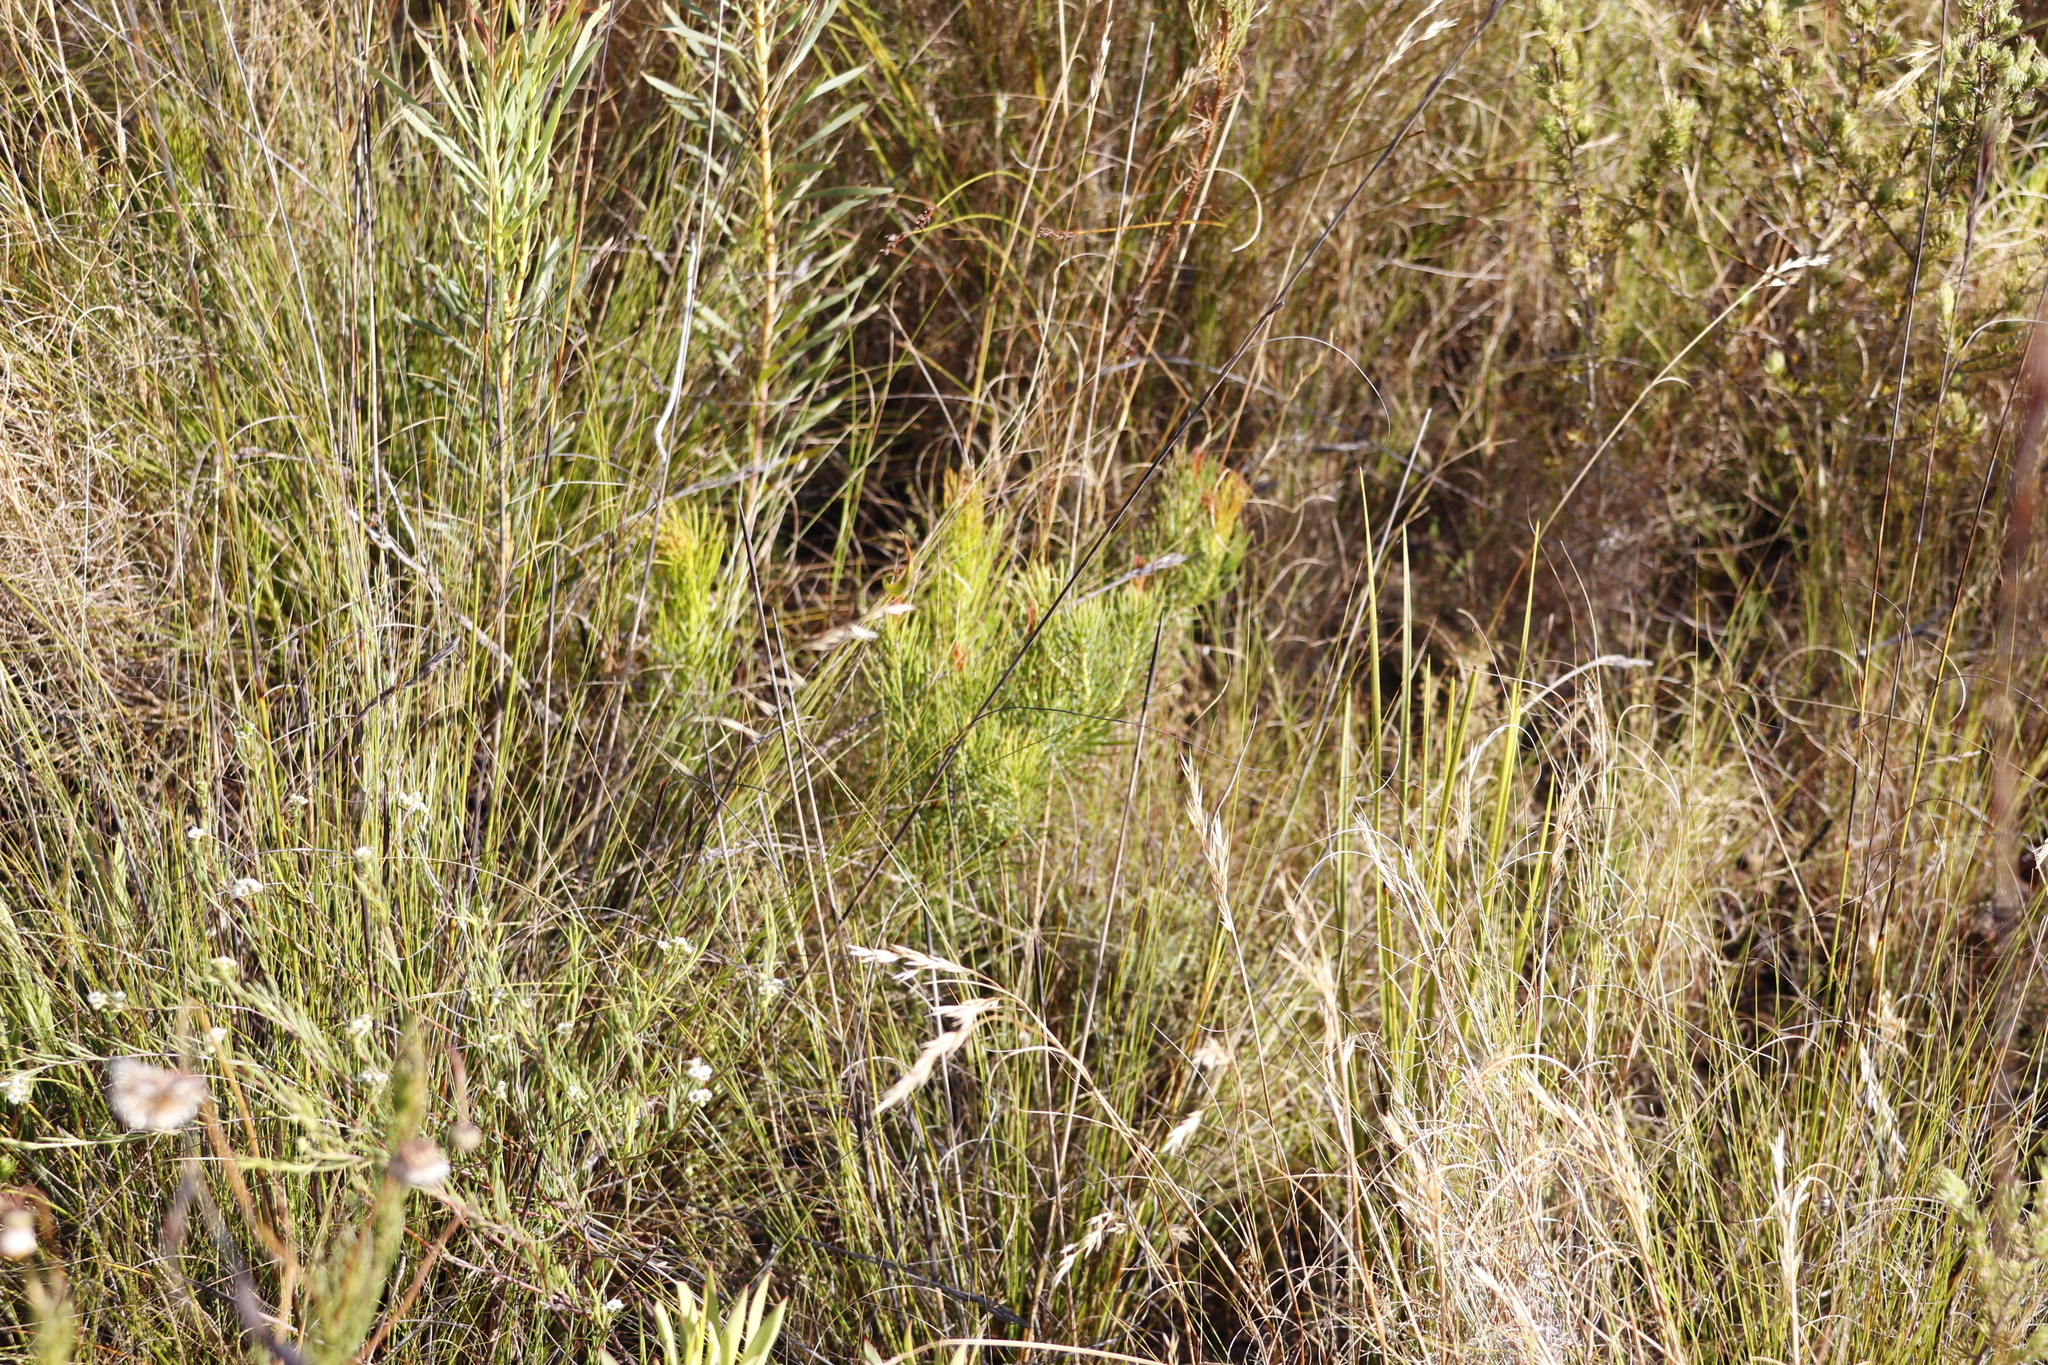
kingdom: Plantae
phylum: Tracheophyta
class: Magnoliopsida
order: Proteales
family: Proteaceae
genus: Protea
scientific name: Protea subulifolia
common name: Awl-leaf sugarbush
